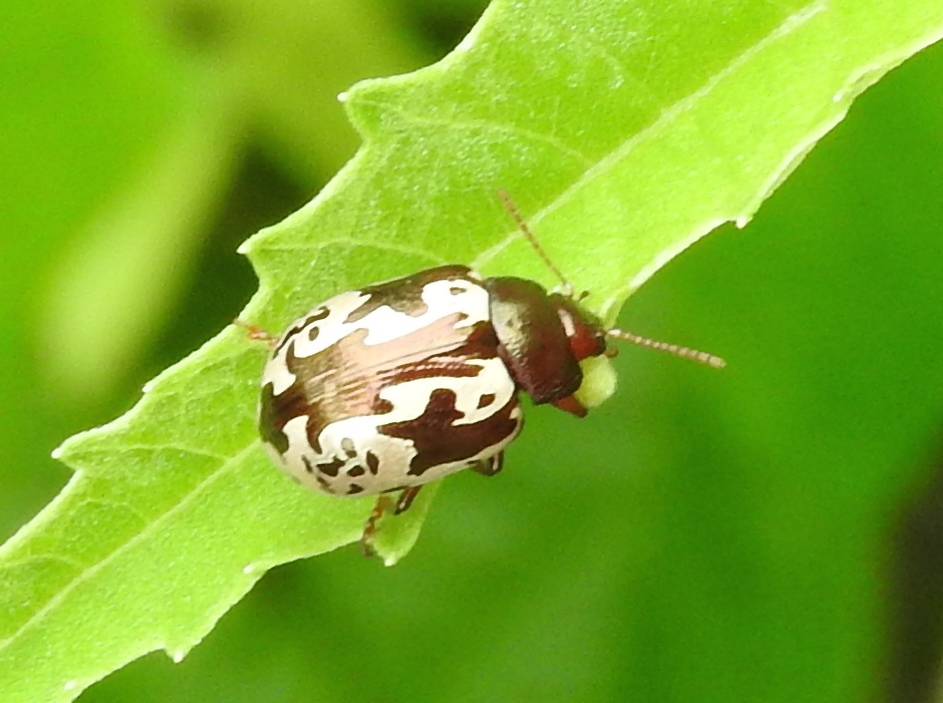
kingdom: Animalia
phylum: Arthropoda
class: Insecta
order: Coleoptera
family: Chrysomelidae
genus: Calligrapha
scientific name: Calligrapha intermedia
